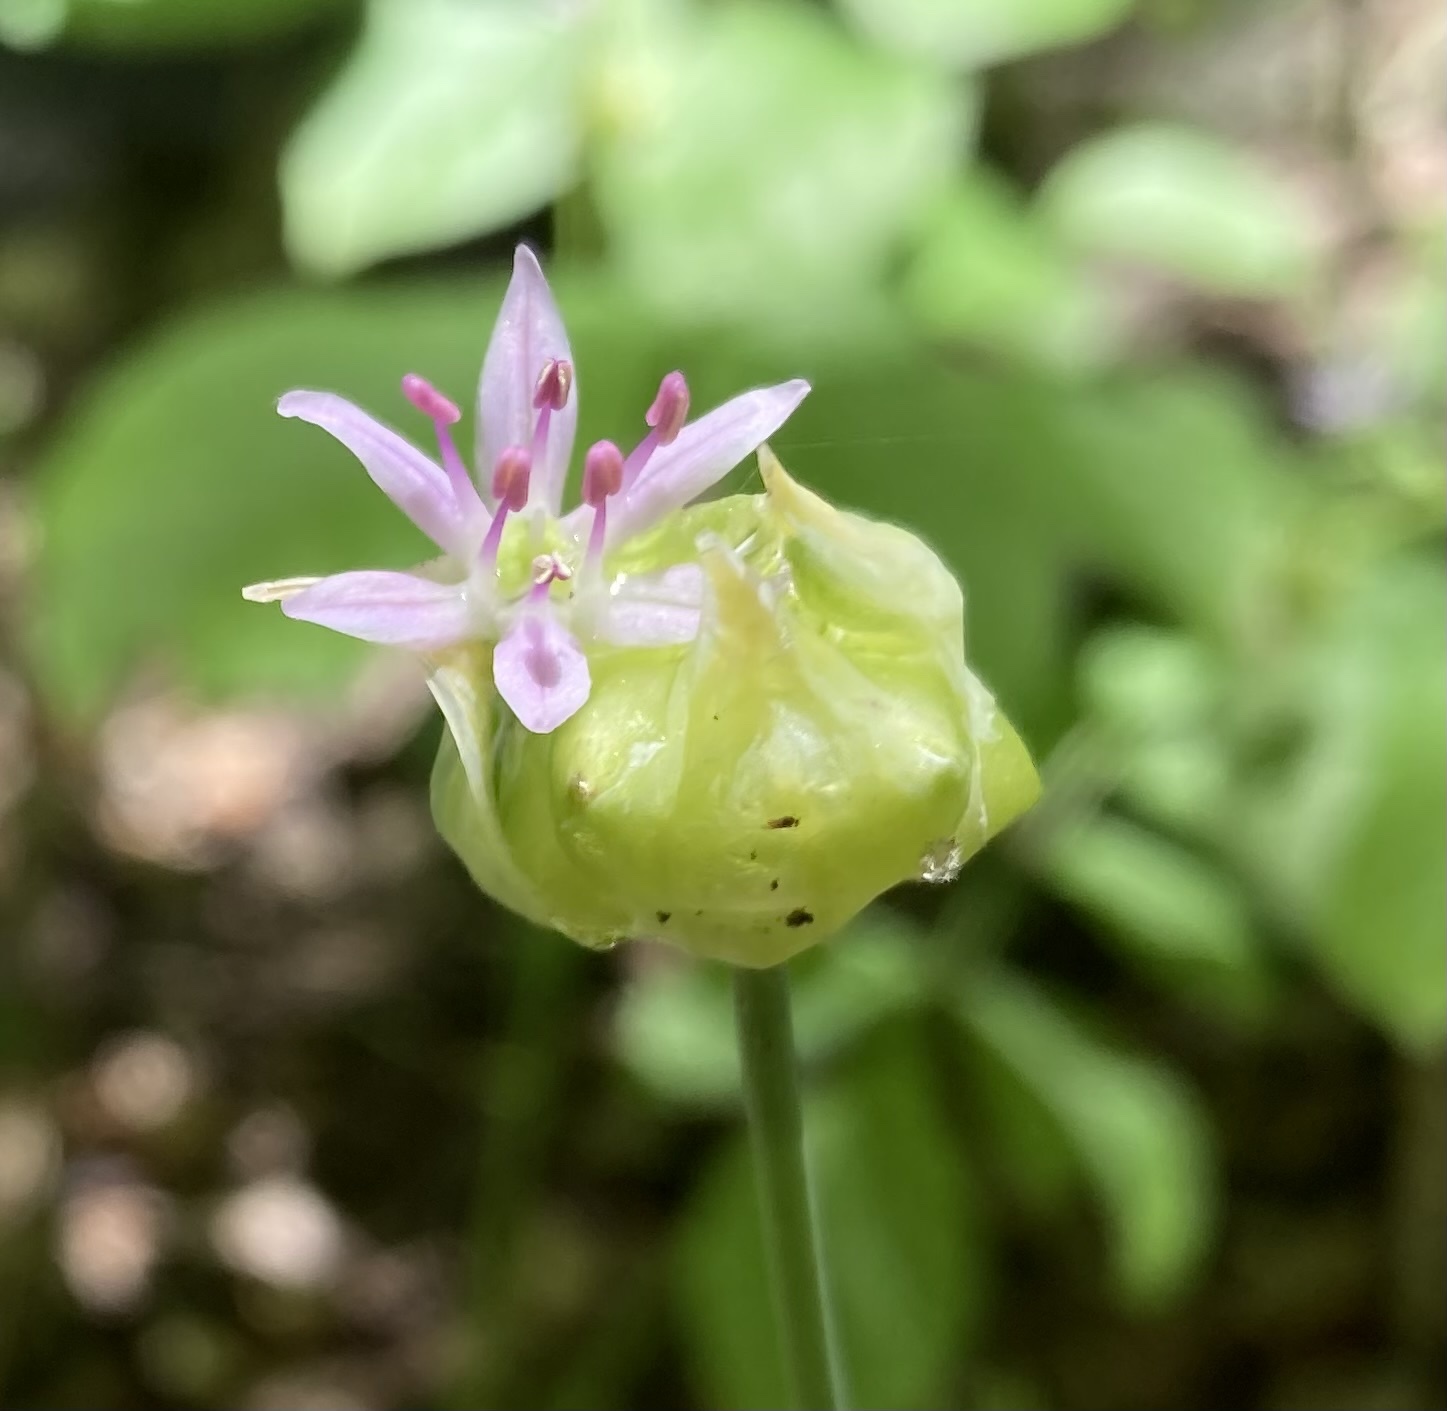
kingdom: Plantae
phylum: Tracheophyta
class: Liliopsida
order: Asparagales
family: Amaryllidaceae
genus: Allium
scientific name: Allium canadense
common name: Meadow garlic
